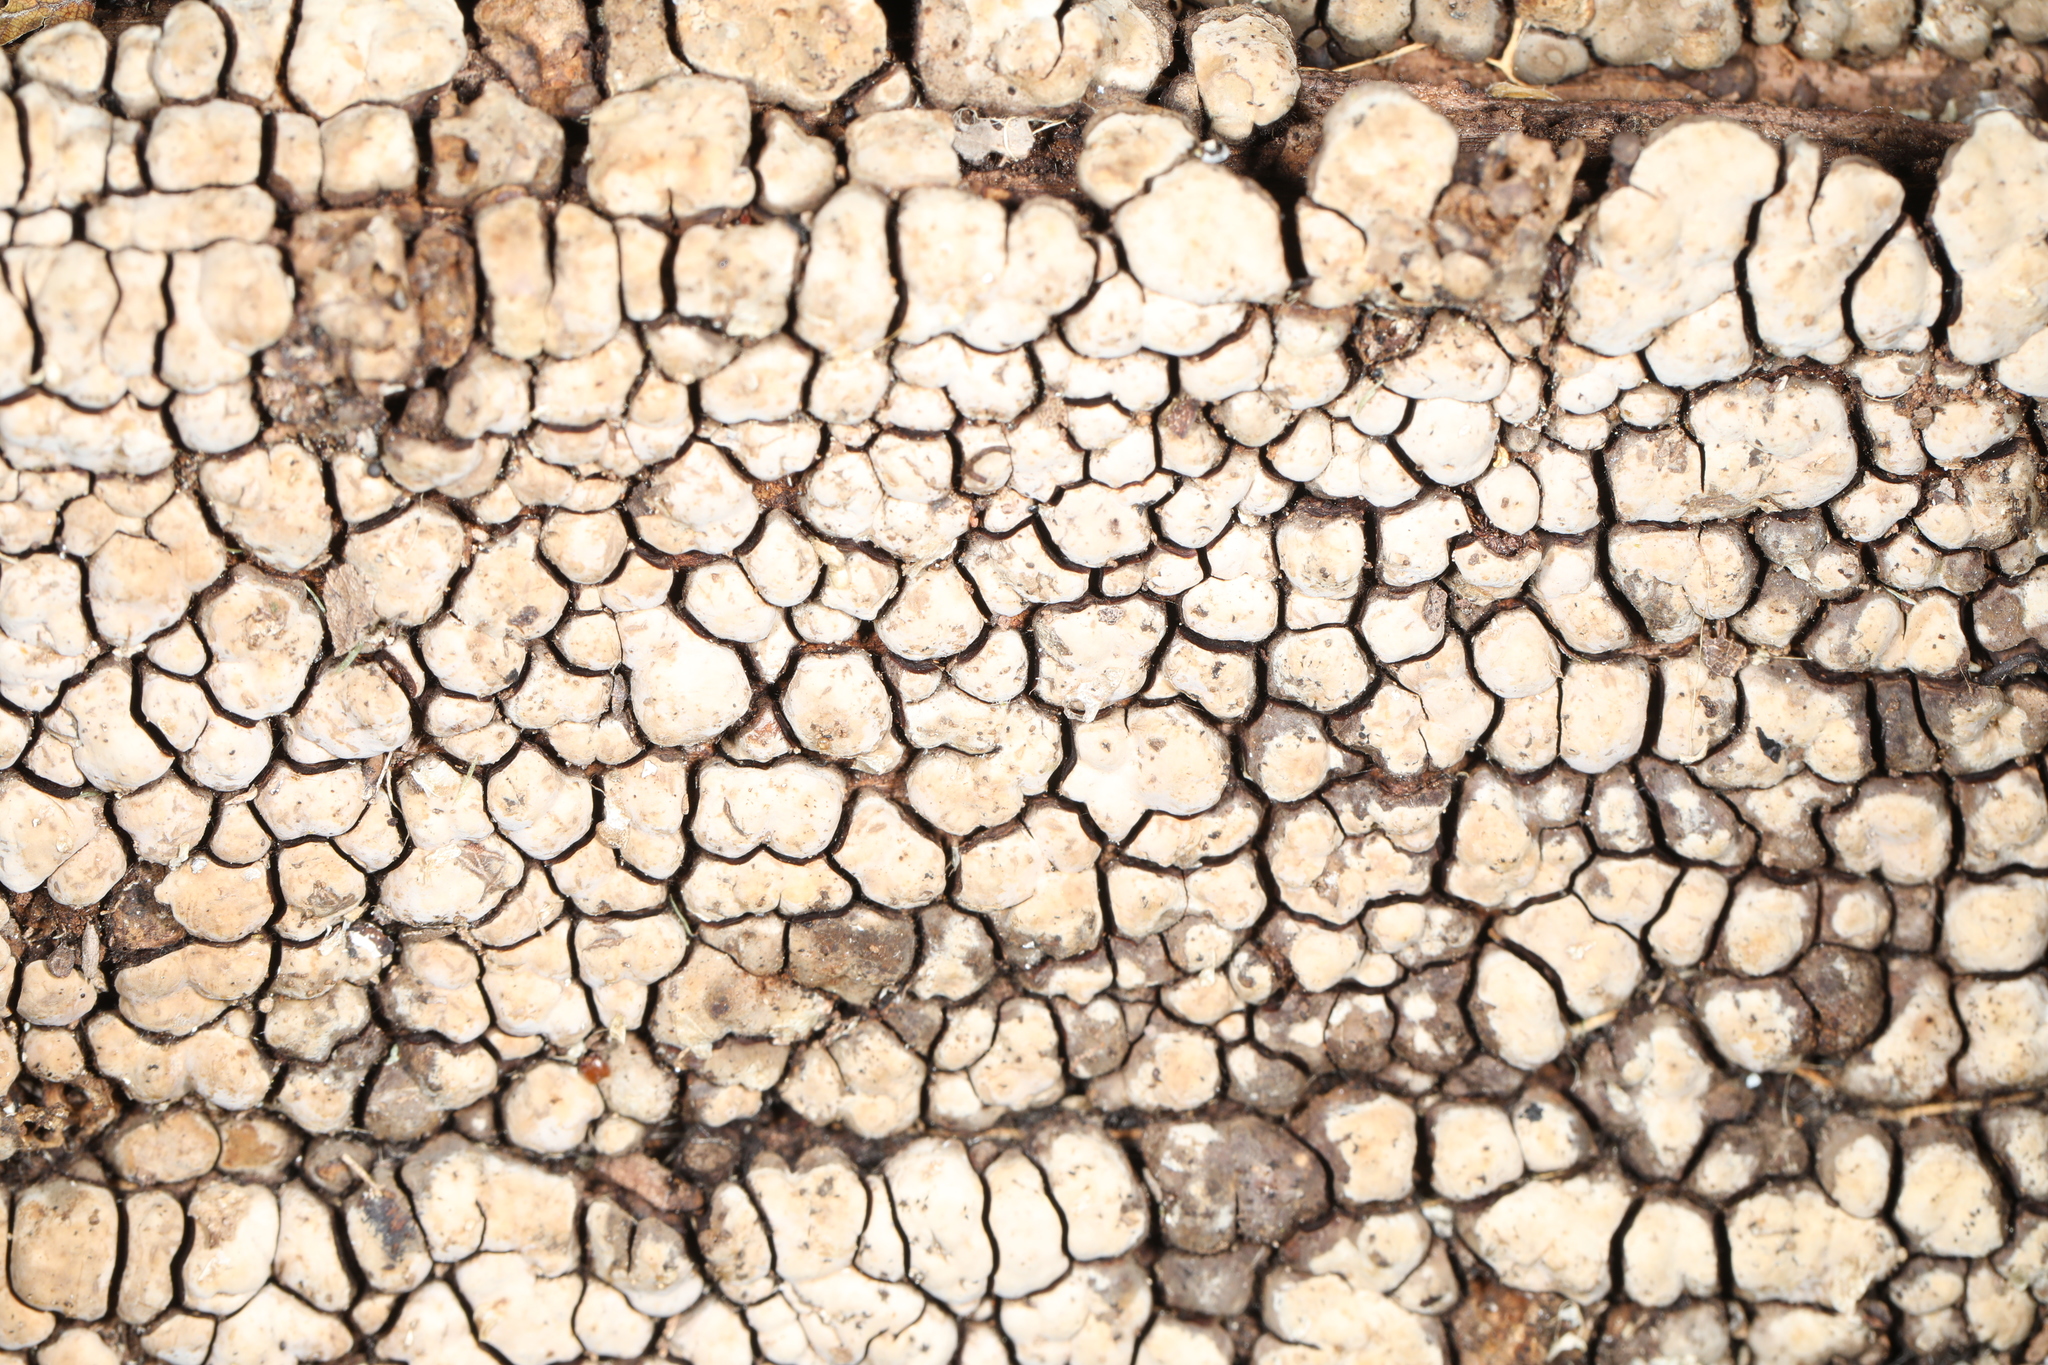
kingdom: Fungi
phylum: Basidiomycota
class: Agaricomycetes
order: Russulales
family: Stereaceae
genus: Xylobolus
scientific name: Xylobolus frustulatus
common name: Ceramic parchment
